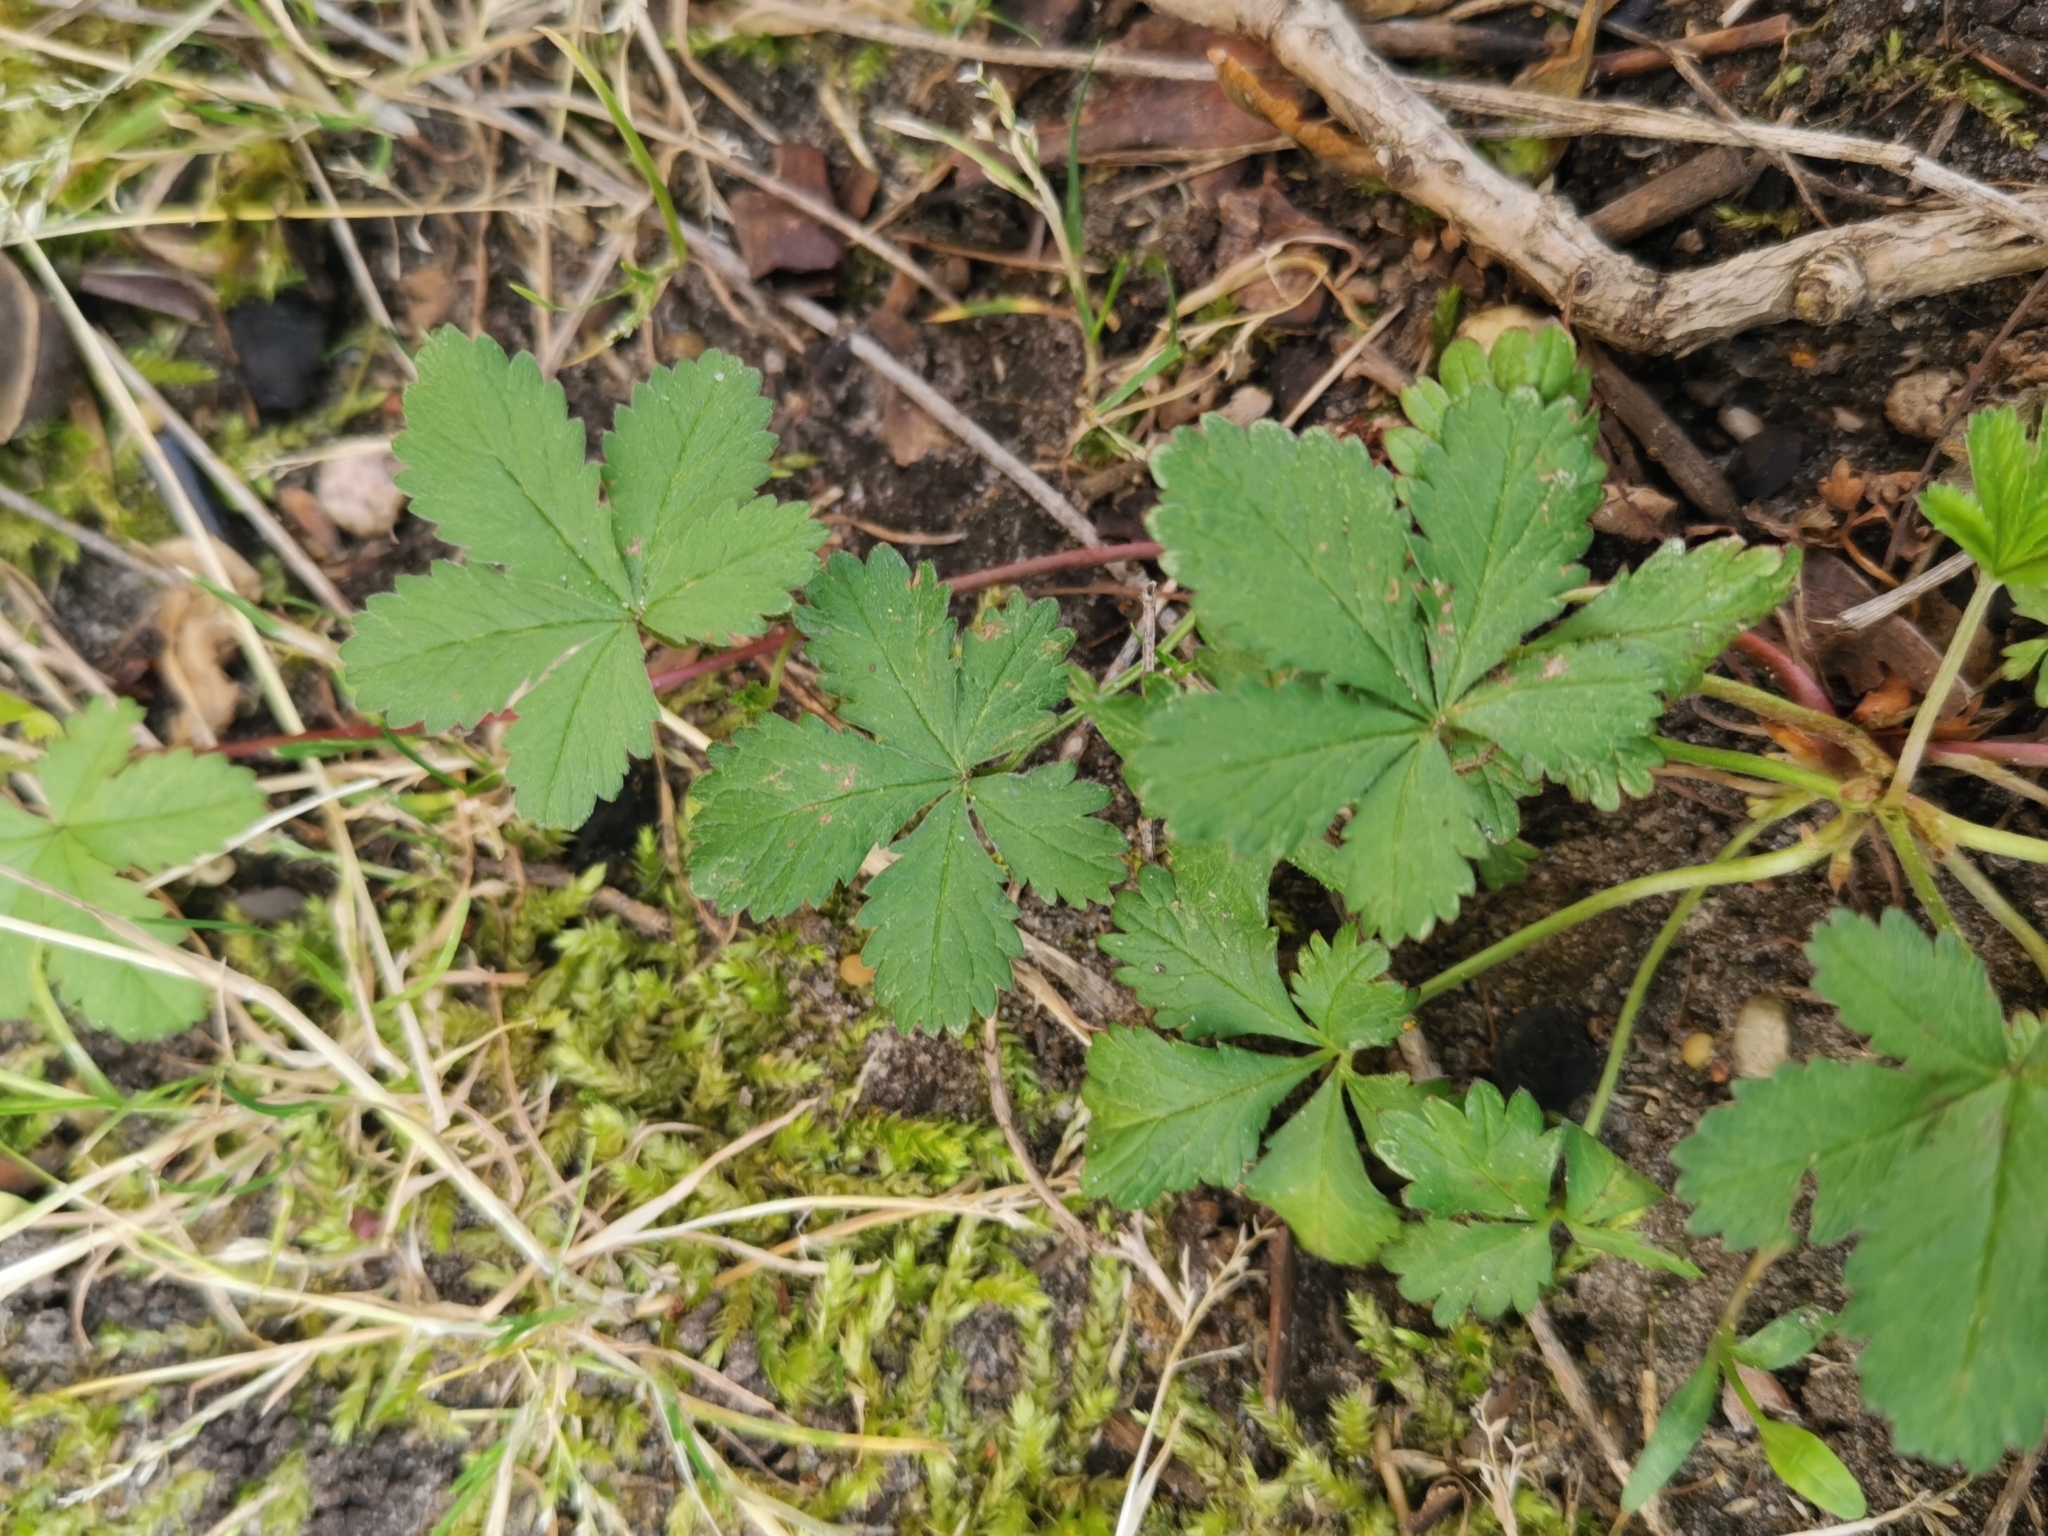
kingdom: Plantae
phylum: Tracheophyta
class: Magnoliopsida
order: Rosales
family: Rosaceae
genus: Potentilla
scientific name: Potentilla reptans
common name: Creeping cinquefoil
